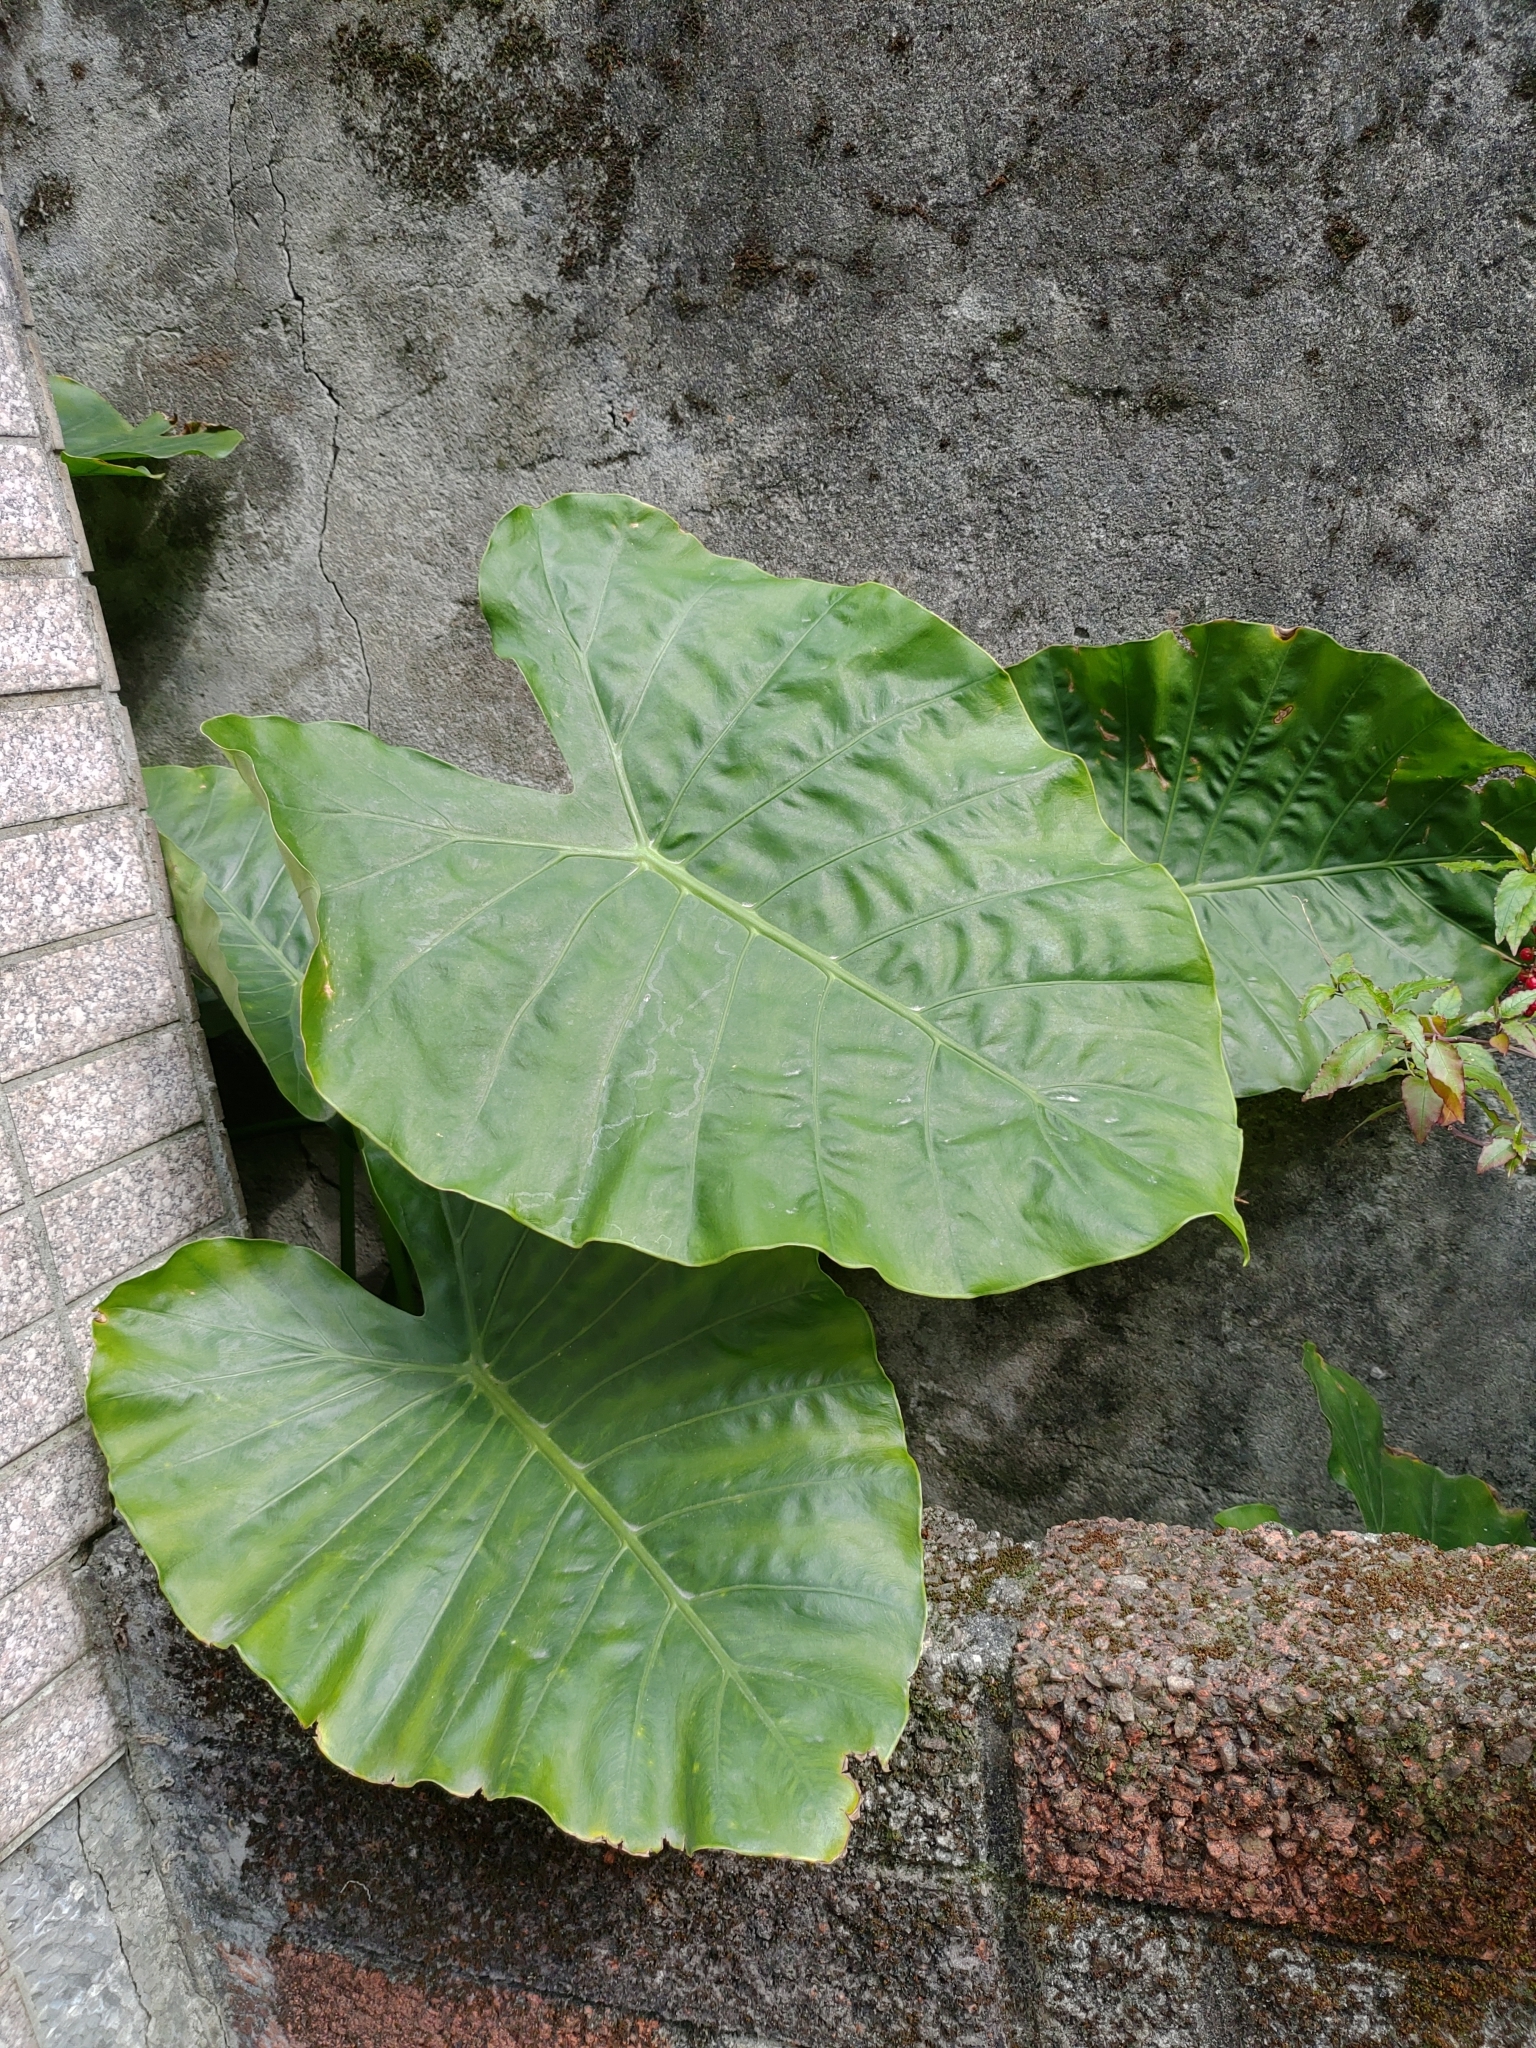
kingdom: Plantae
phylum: Tracheophyta
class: Liliopsida
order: Alismatales
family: Araceae
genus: Alocasia
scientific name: Alocasia odora
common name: Asian taro
